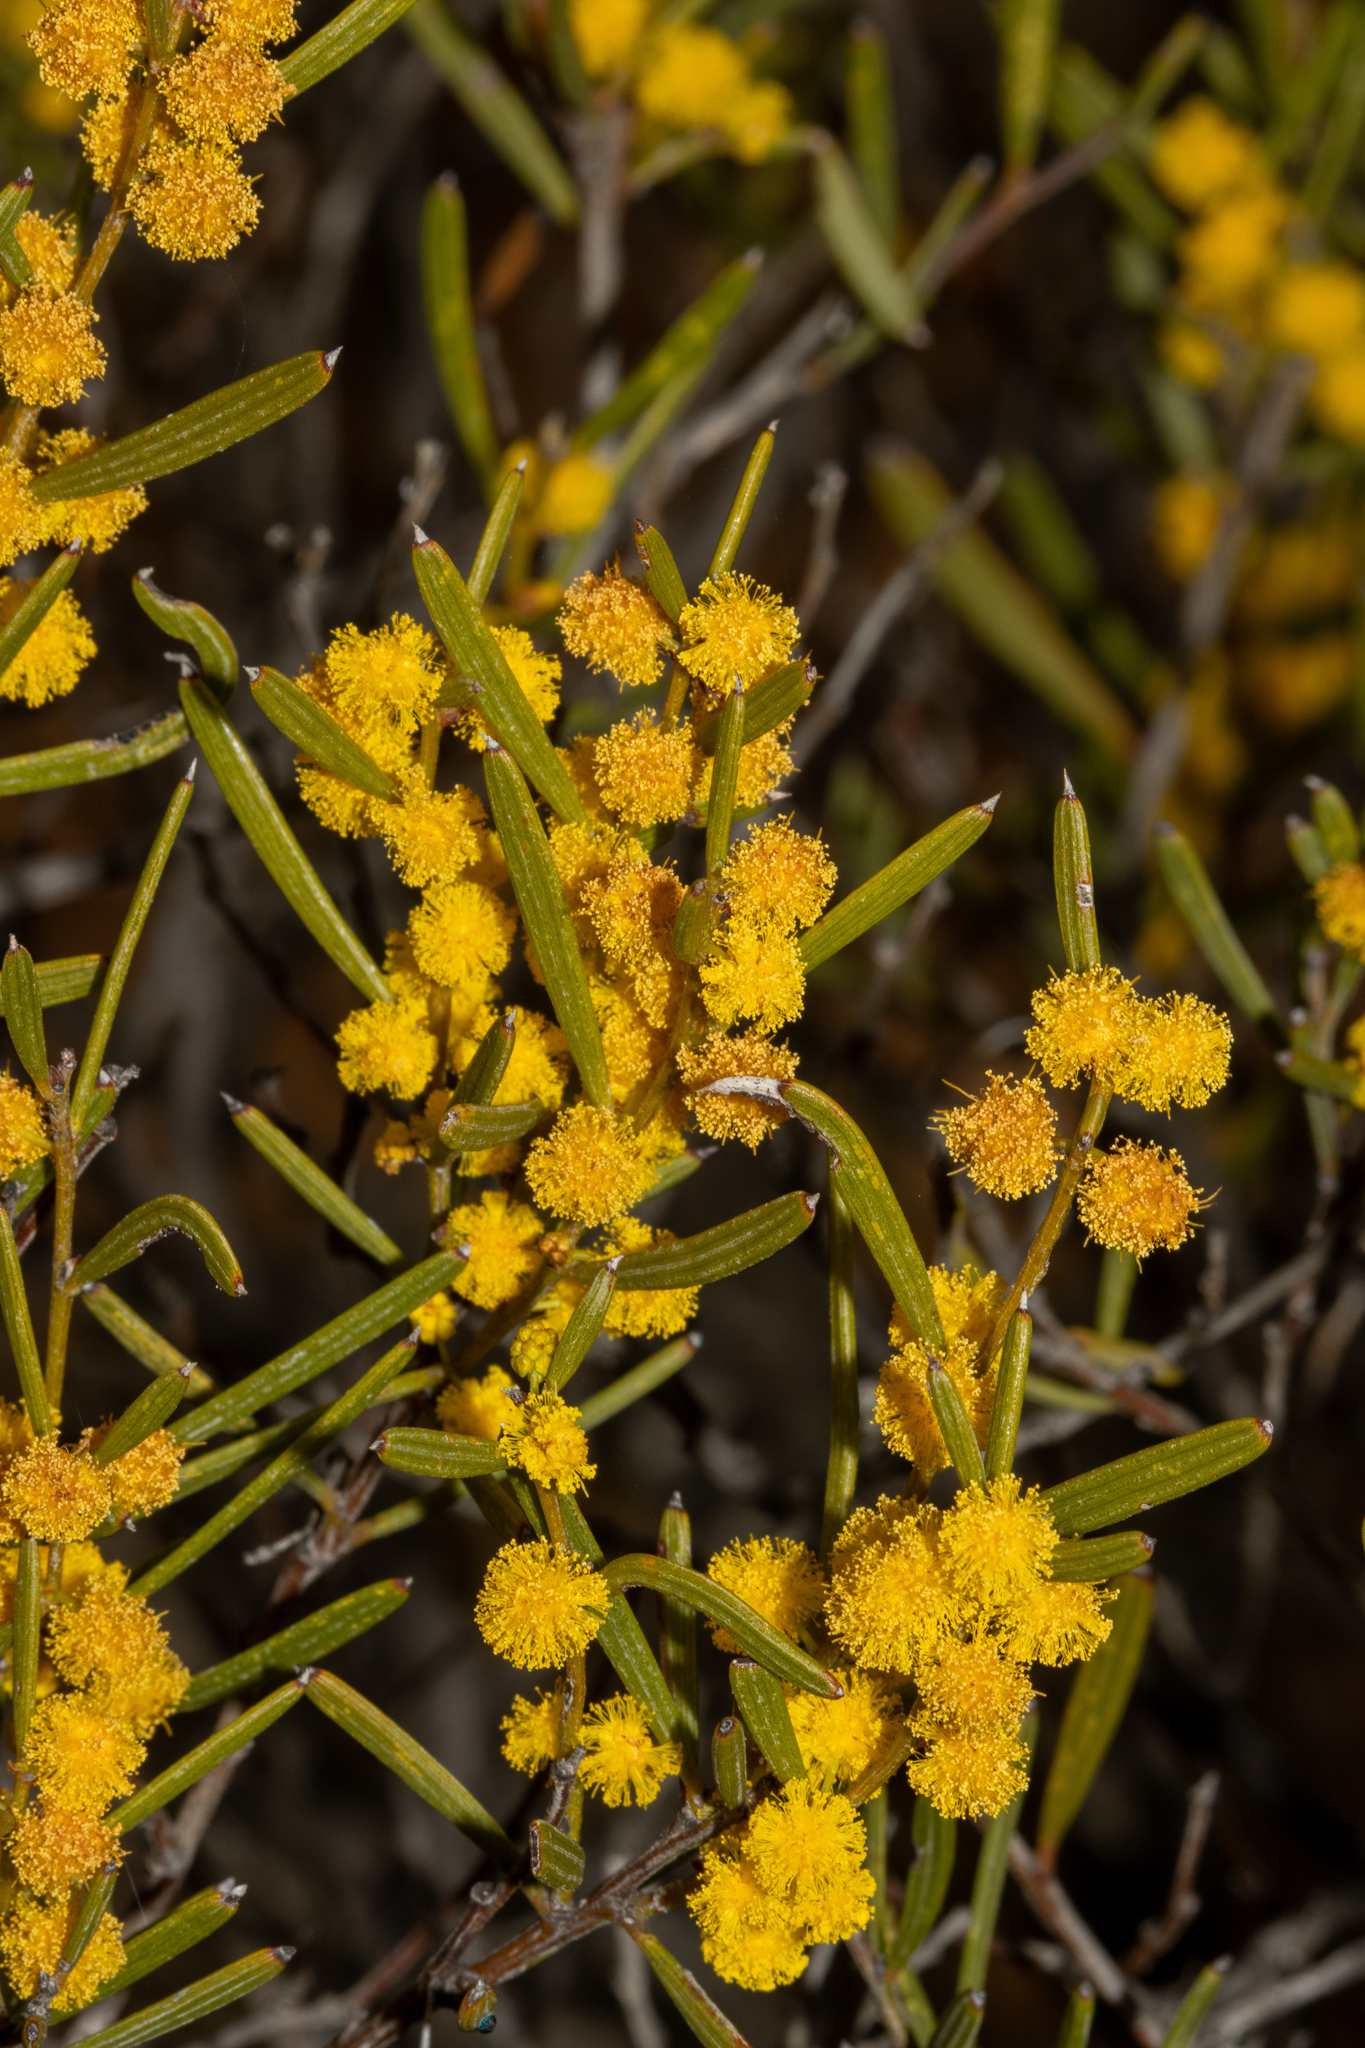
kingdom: Plantae
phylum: Tracheophyta
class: Magnoliopsida
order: Fabales
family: Fabaceae
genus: Acacia
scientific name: Acacia sclerophylla
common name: Hard-leaf wattle
